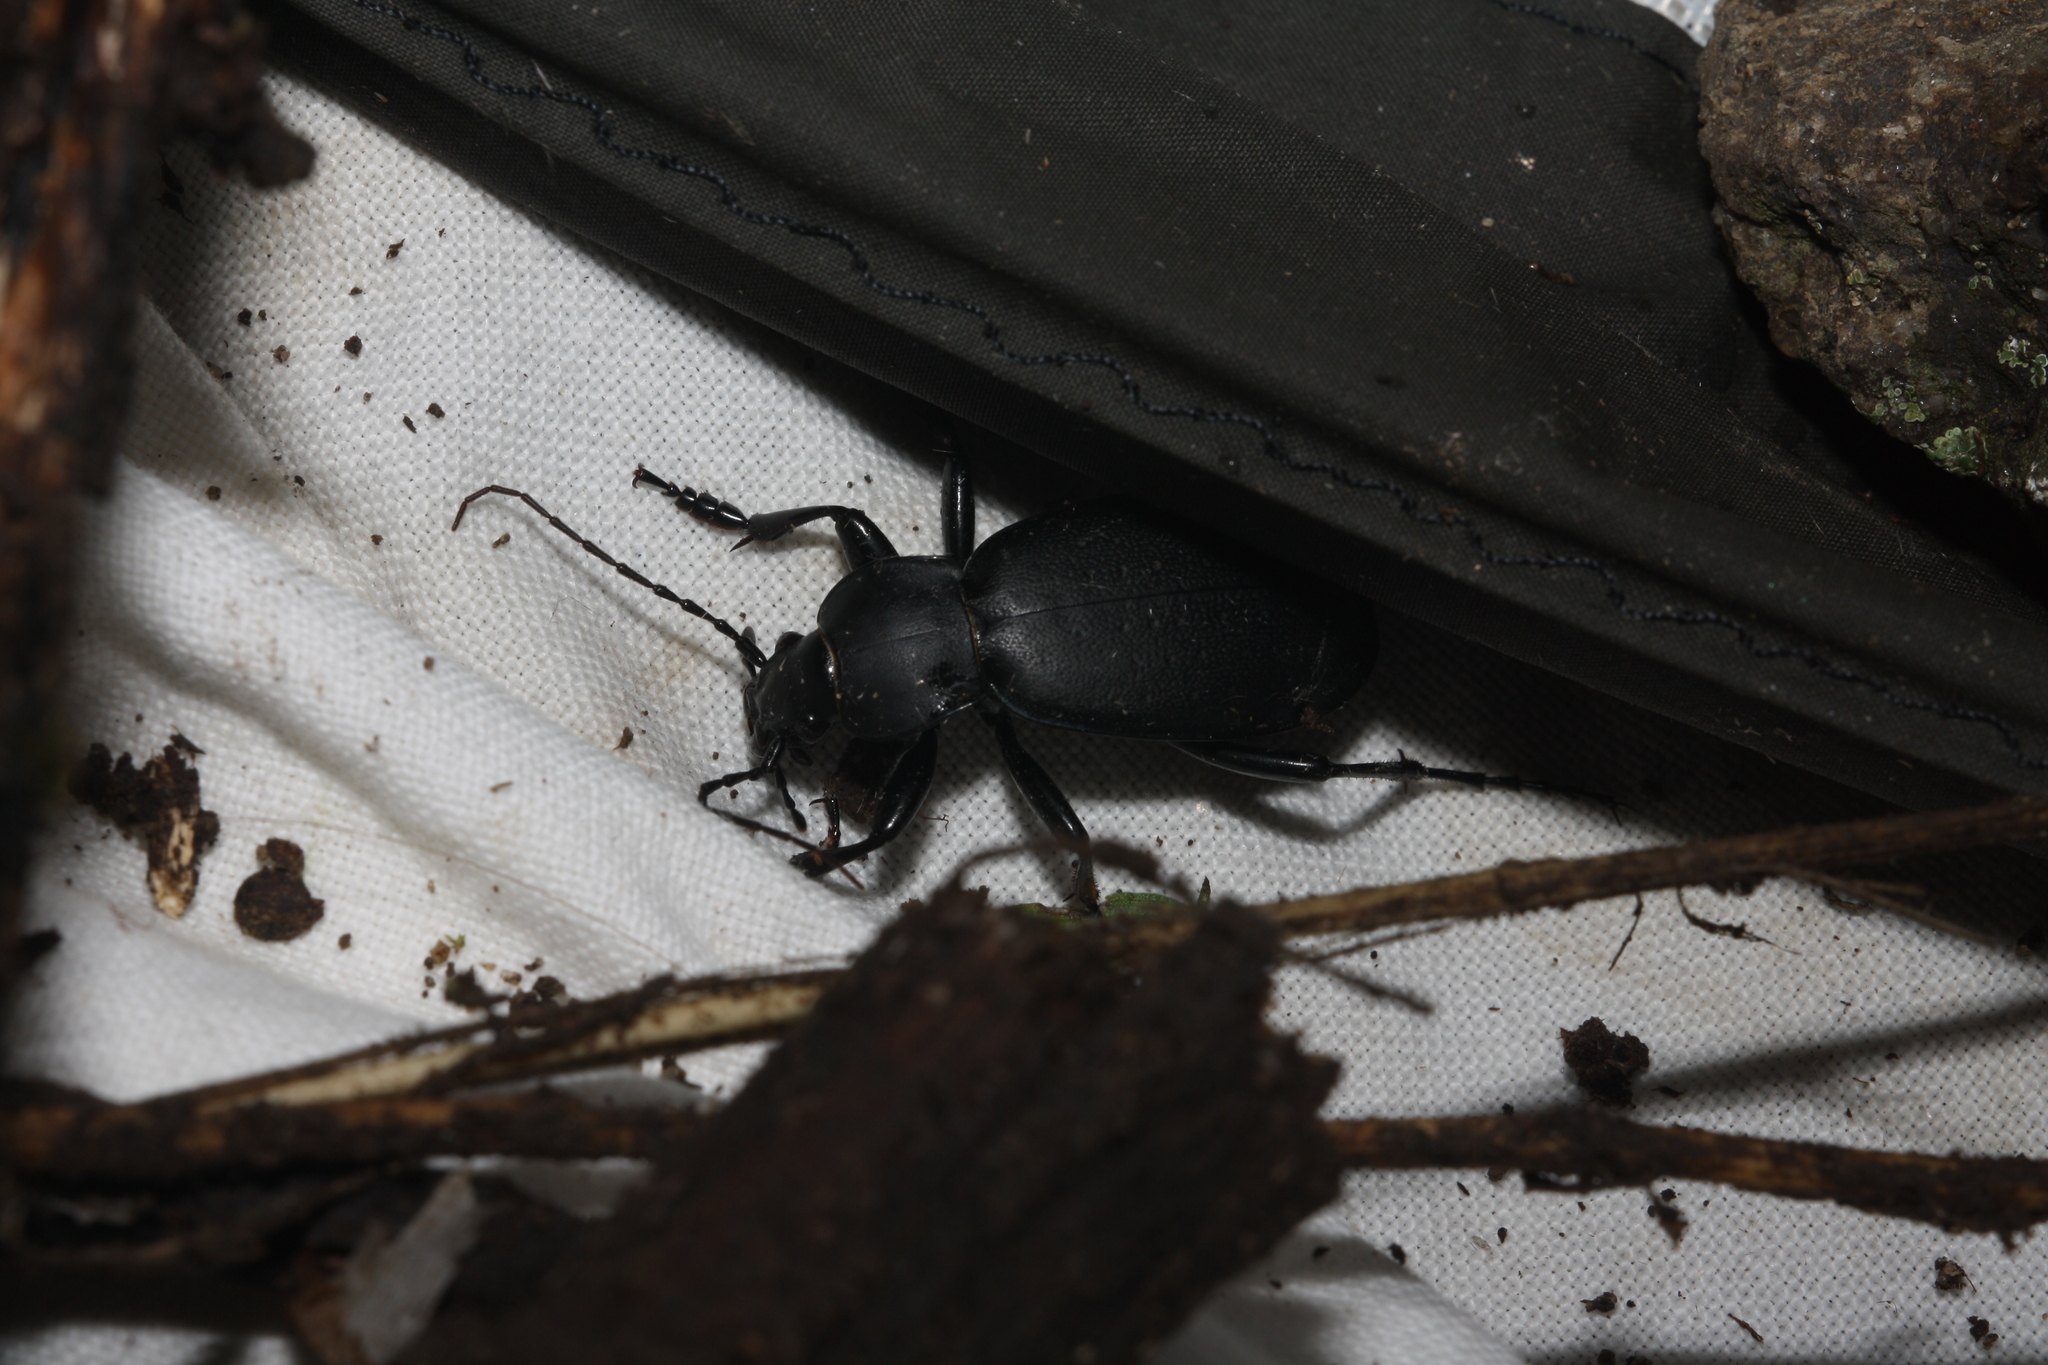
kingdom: Animalia
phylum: Arthropoda
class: Insecta
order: Coleoptera
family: Carabidae
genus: Carabus
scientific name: Carabus coriaceus
